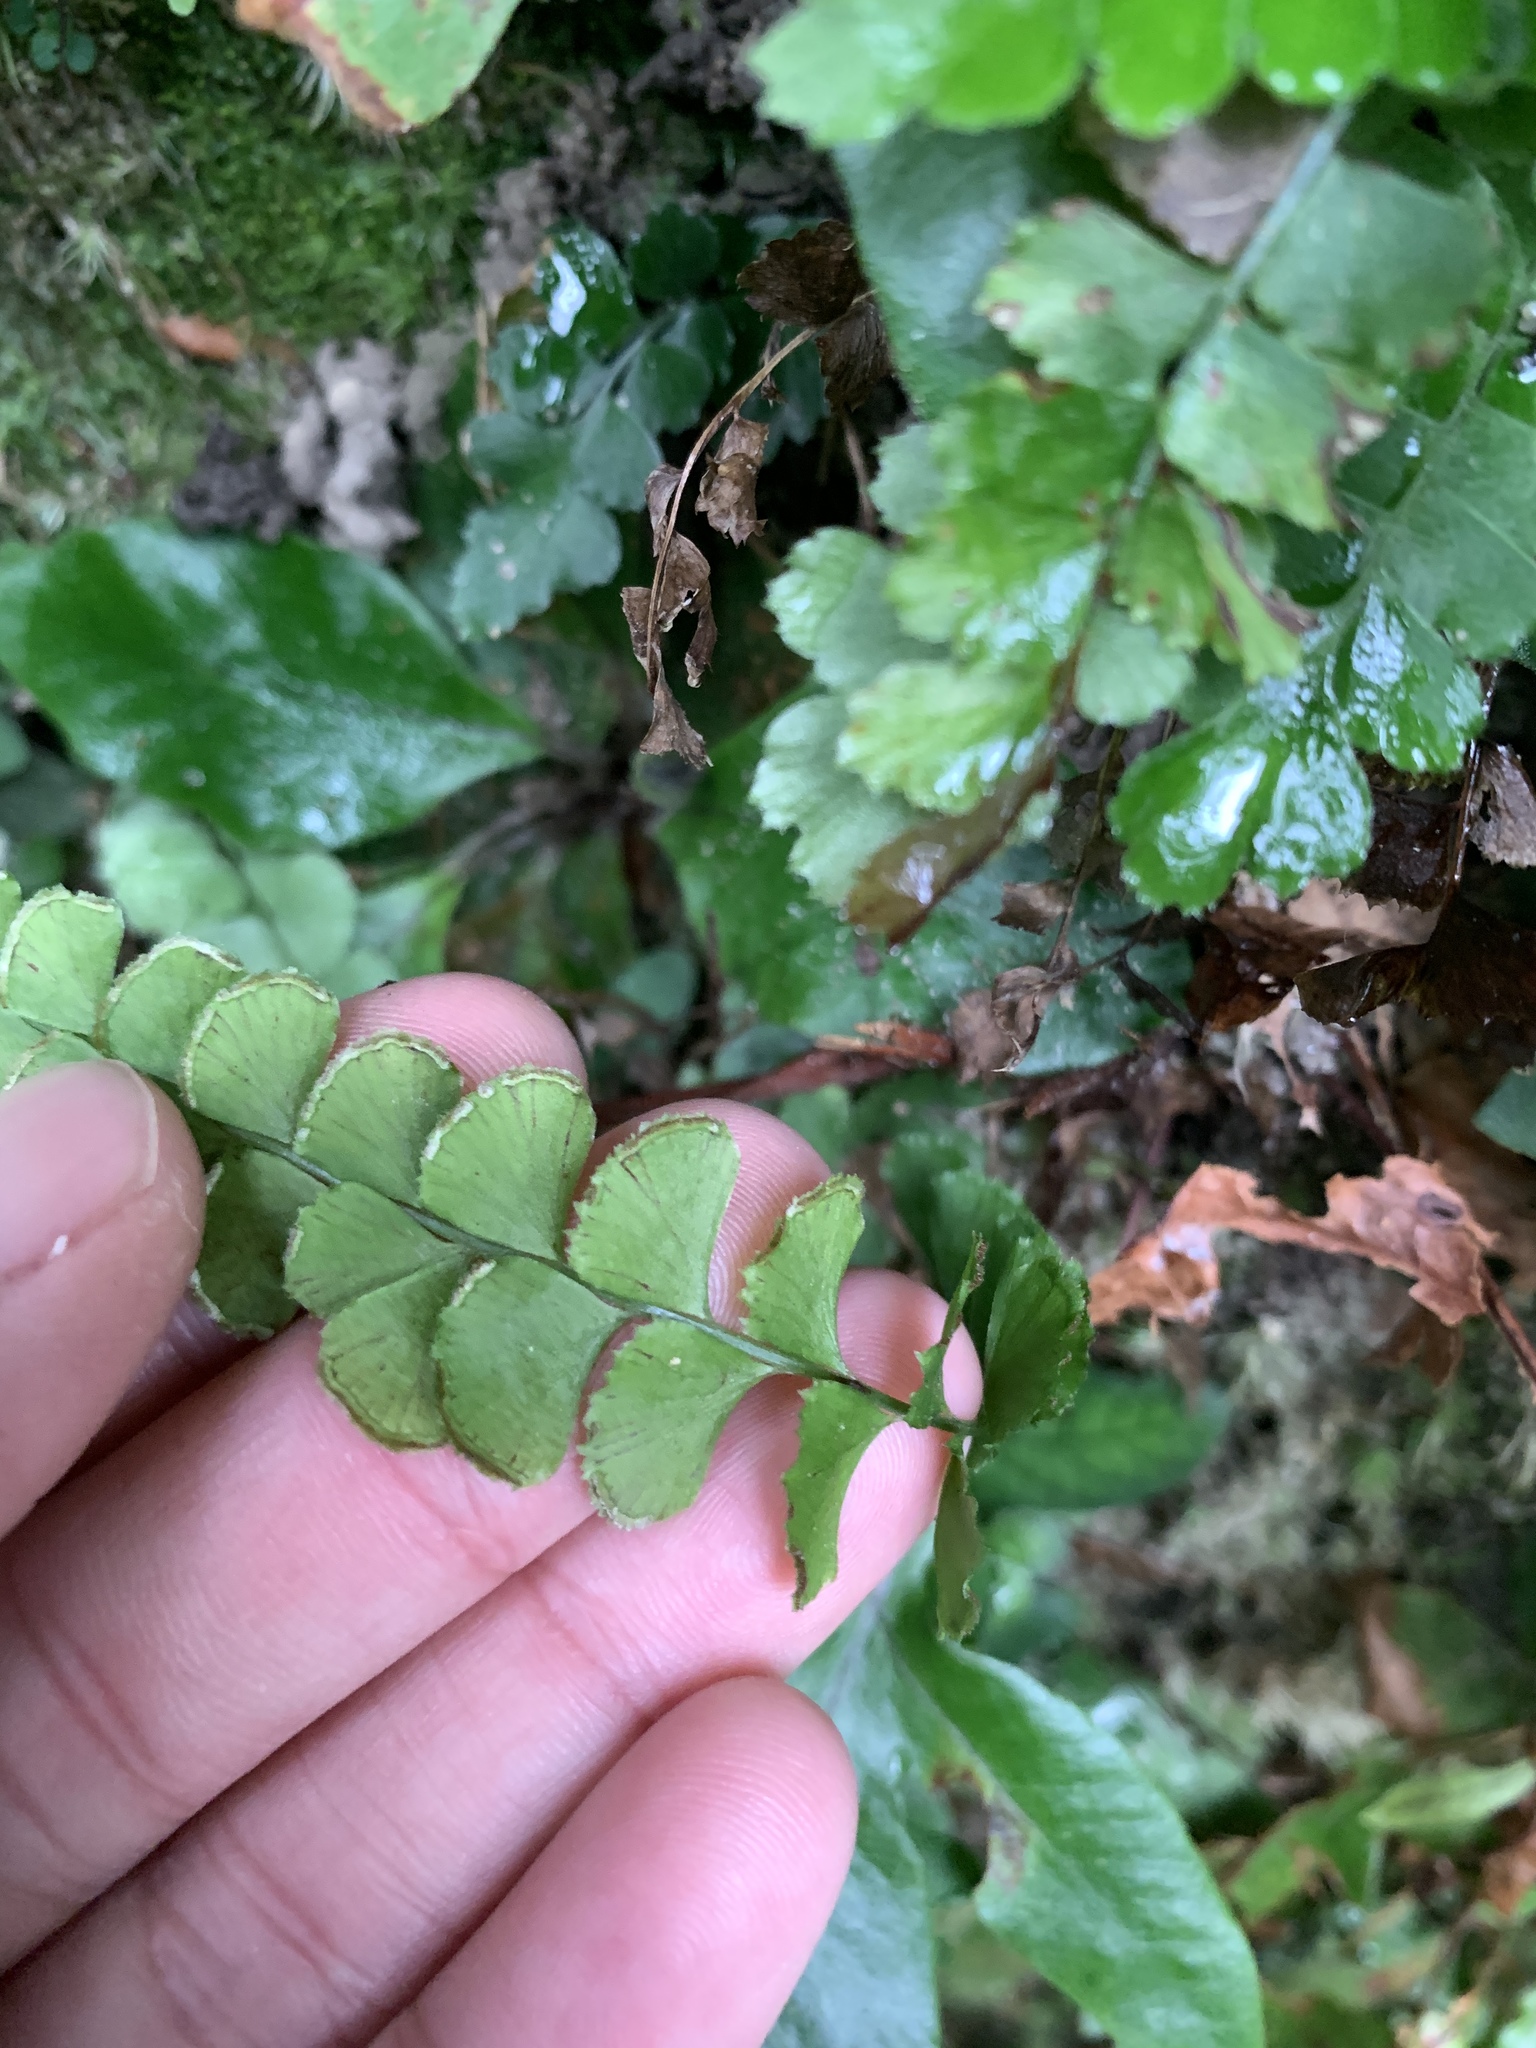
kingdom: Plantae
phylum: Tracheophyta
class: Polypodiopsida
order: Polypodiales
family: Lindsaeaceae
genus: Lindsaea
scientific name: Lindsaea orbiculata
